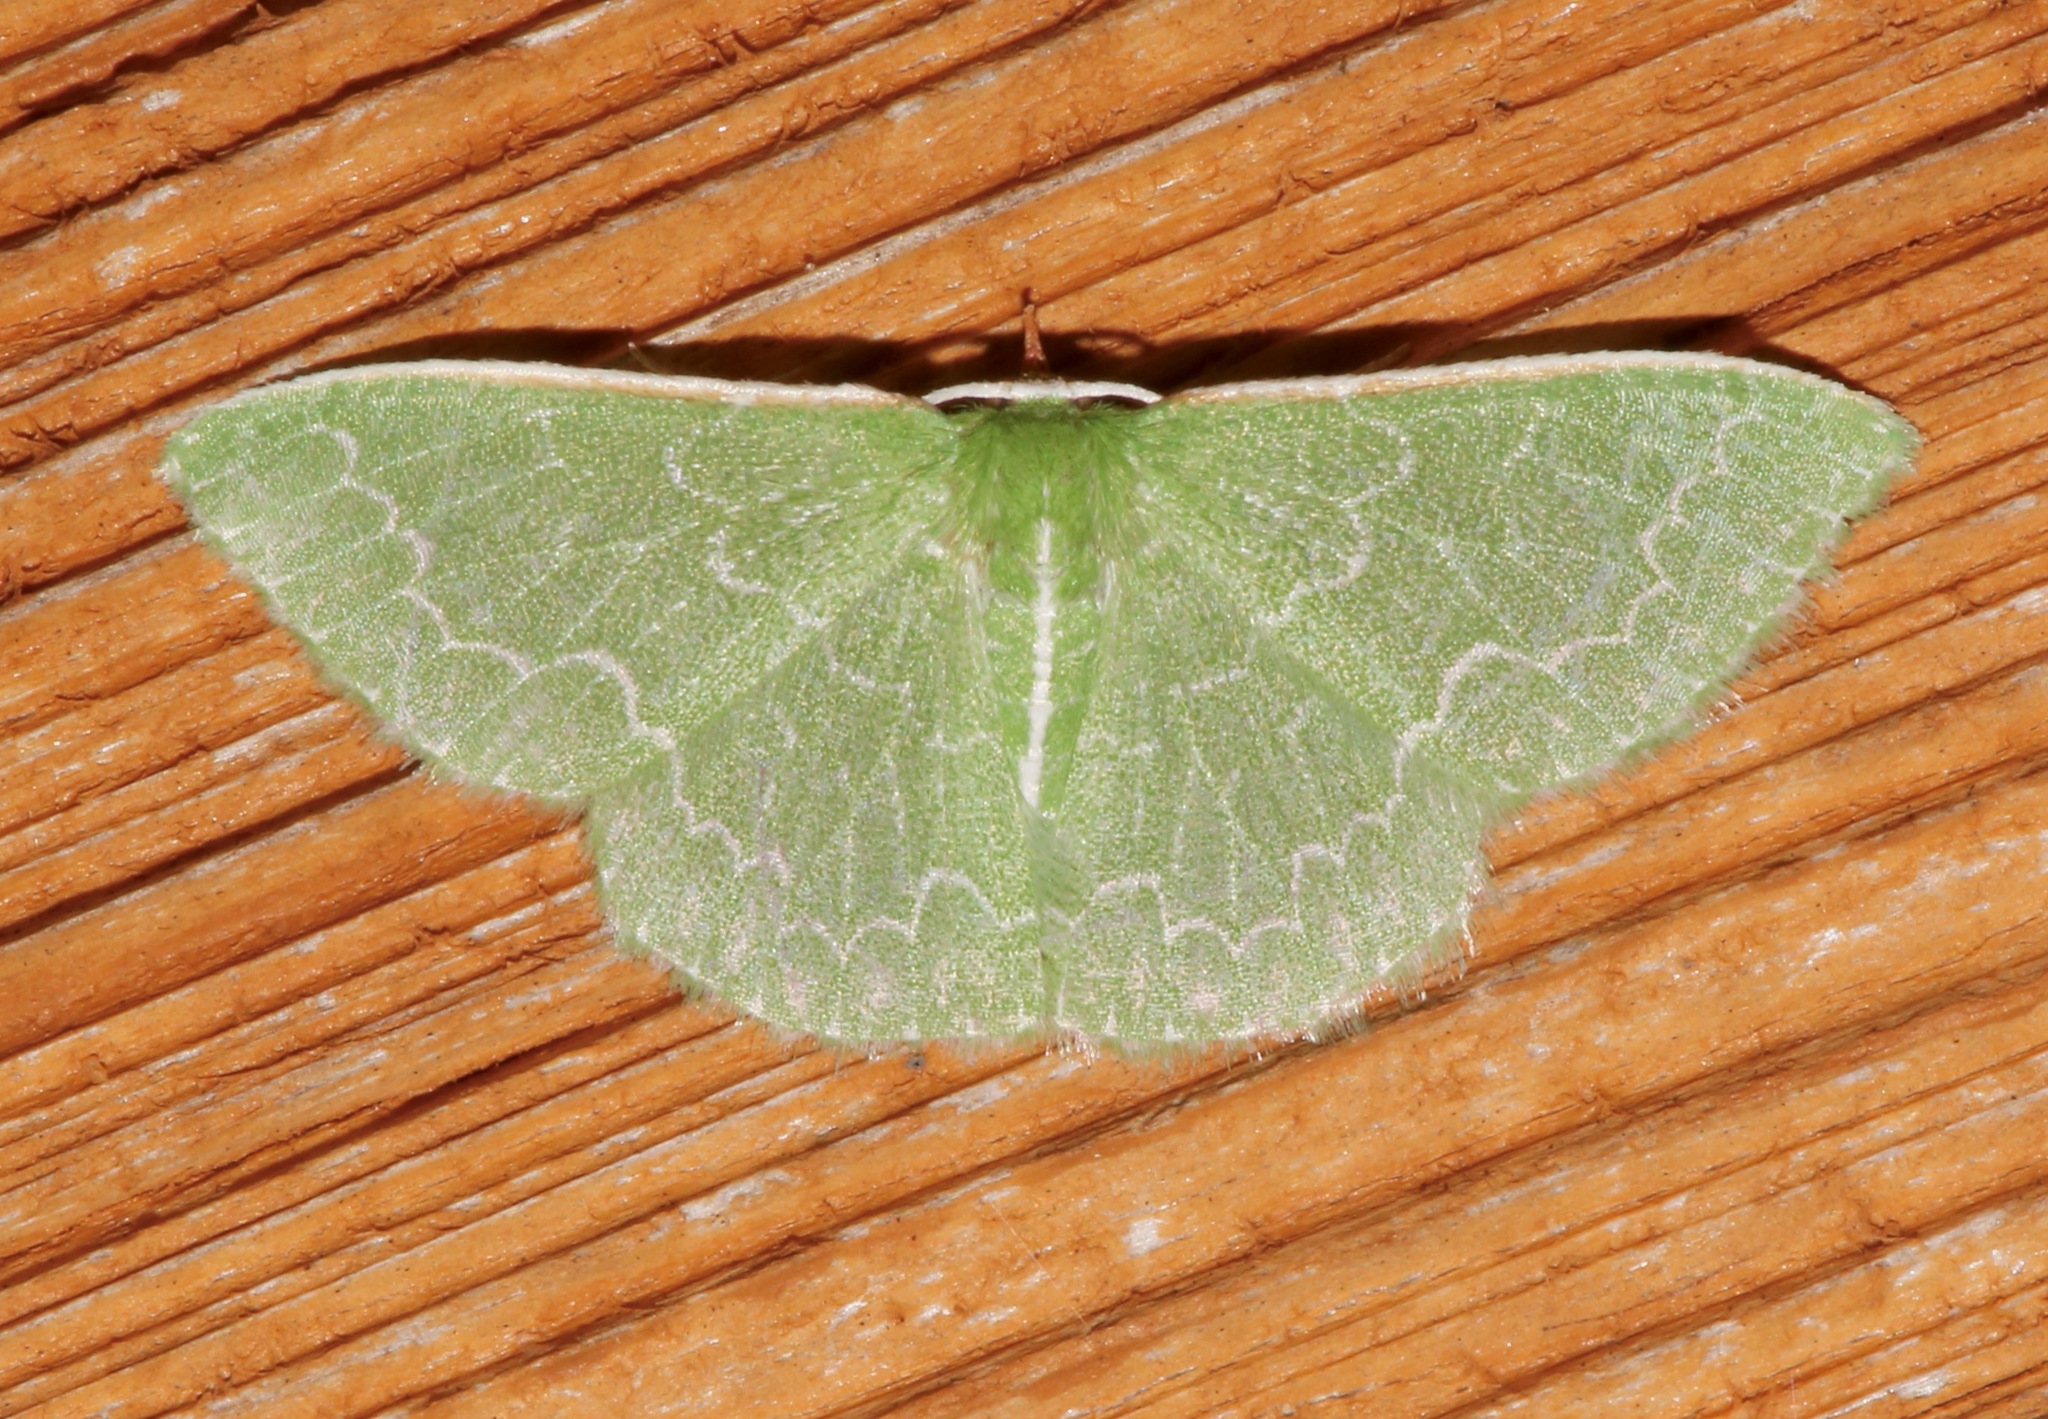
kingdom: Animalia
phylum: Arthropoda
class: Insecta
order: Lepidoptera
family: Geometridae
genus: Synchlora
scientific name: Synchlora frondaria
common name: Southern emerald
